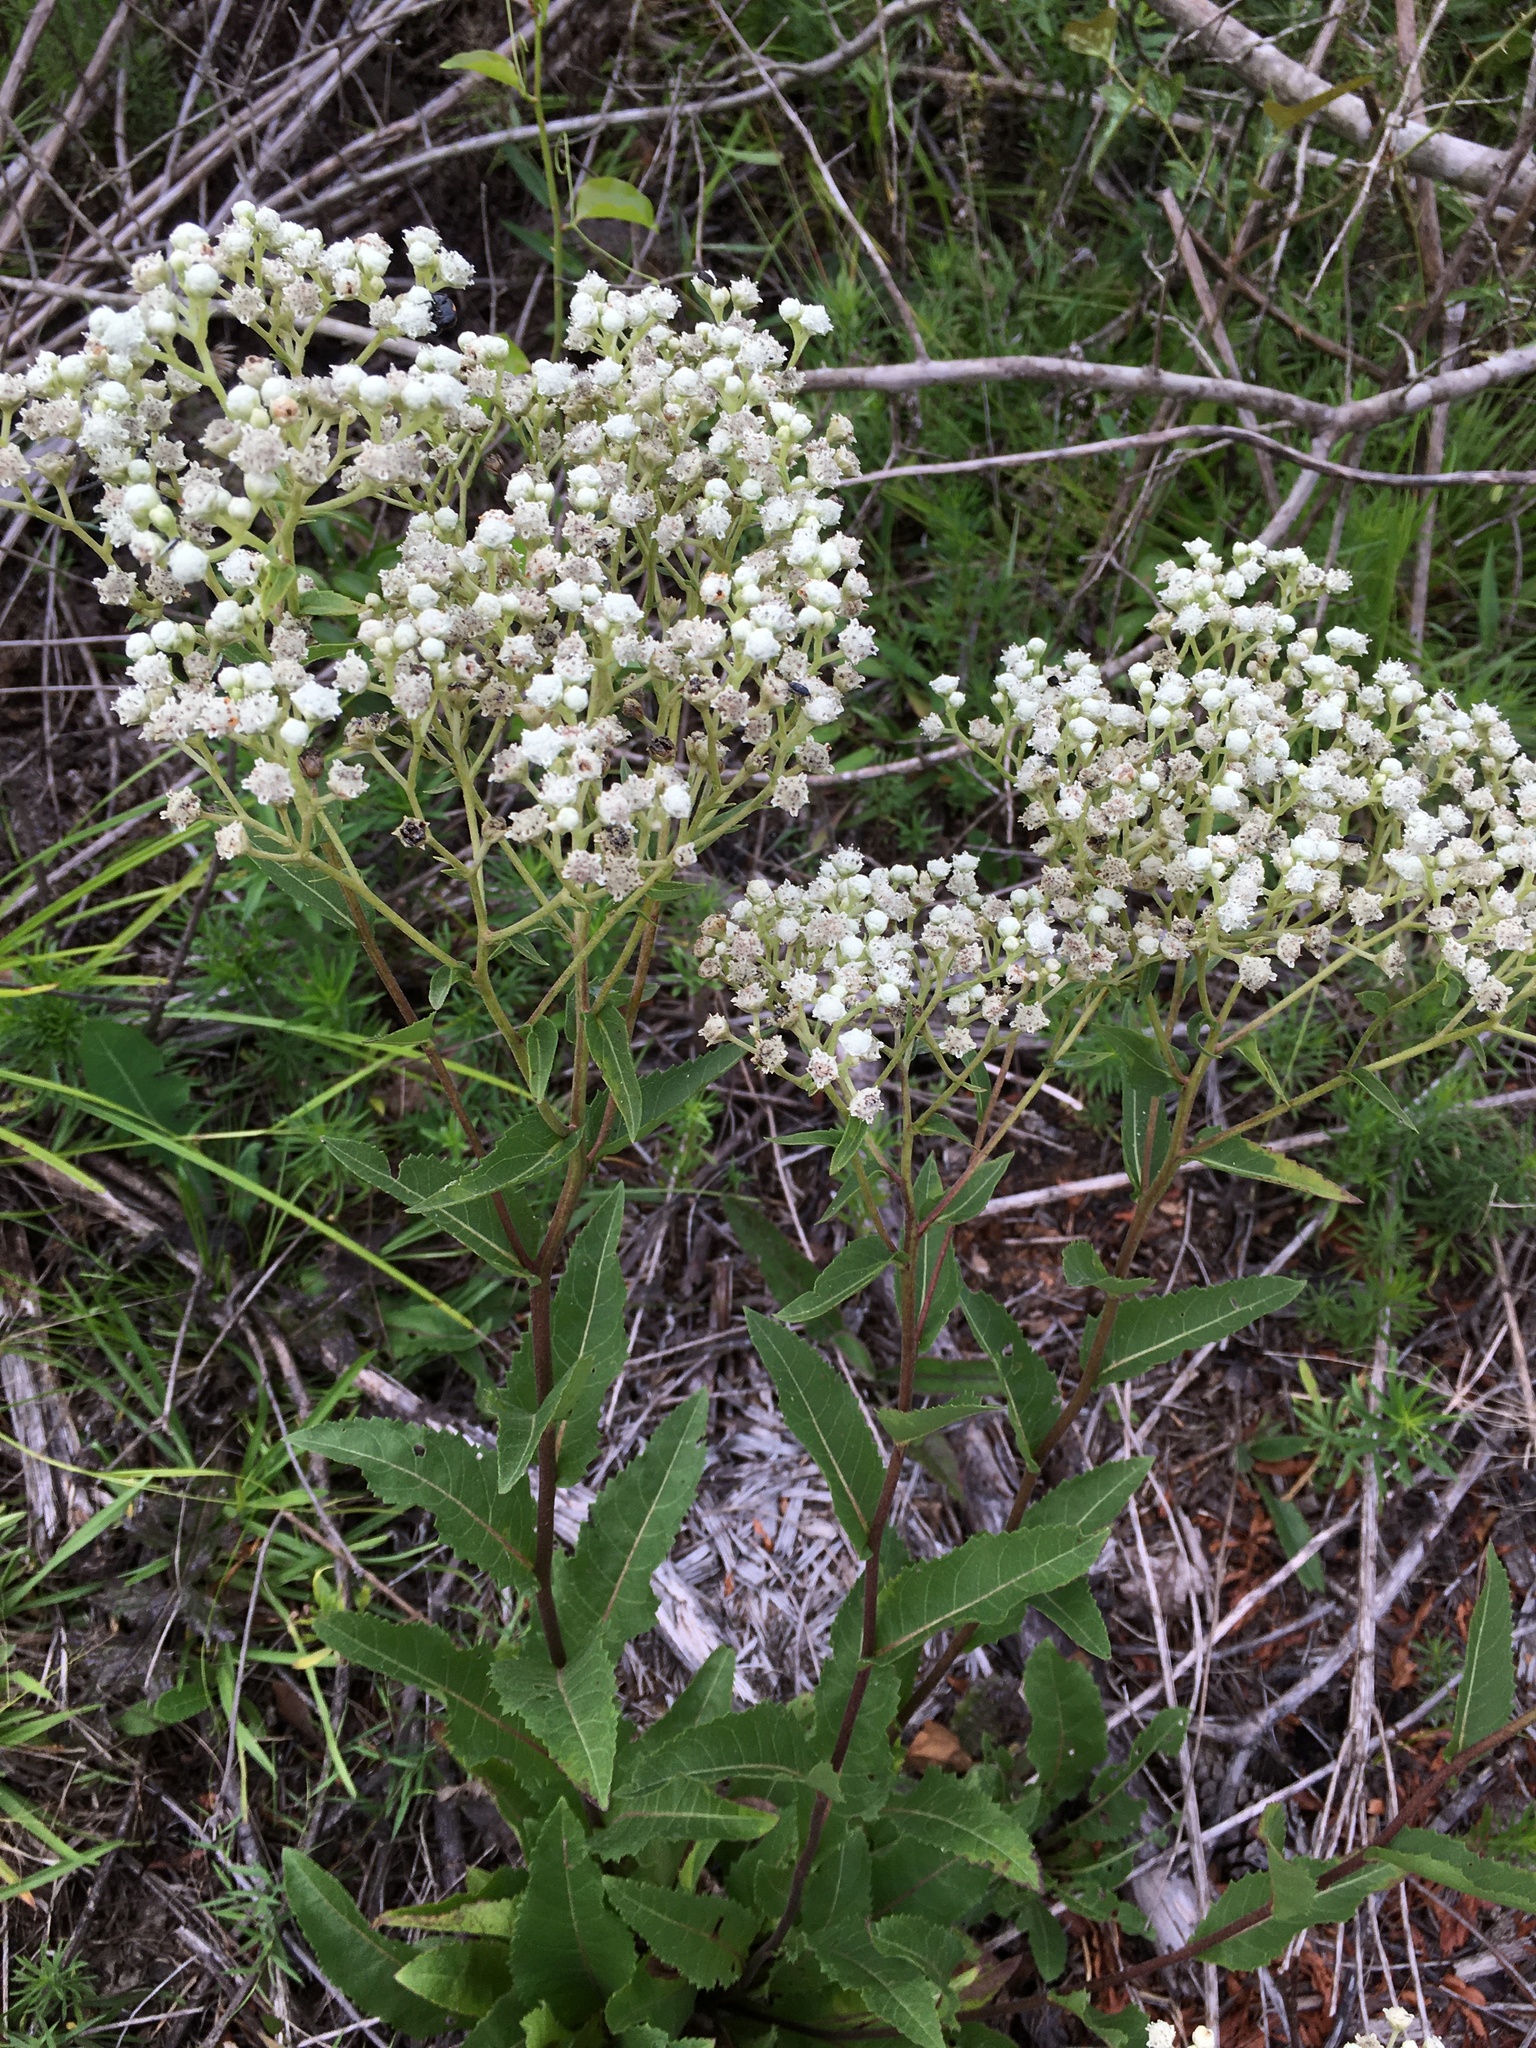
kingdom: Plantae
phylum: Tracheophyta
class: Magnoliopsida
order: Asterales
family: Asteraceae
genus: Parthenium
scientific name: Parthenium integrifolium
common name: American feverfew
